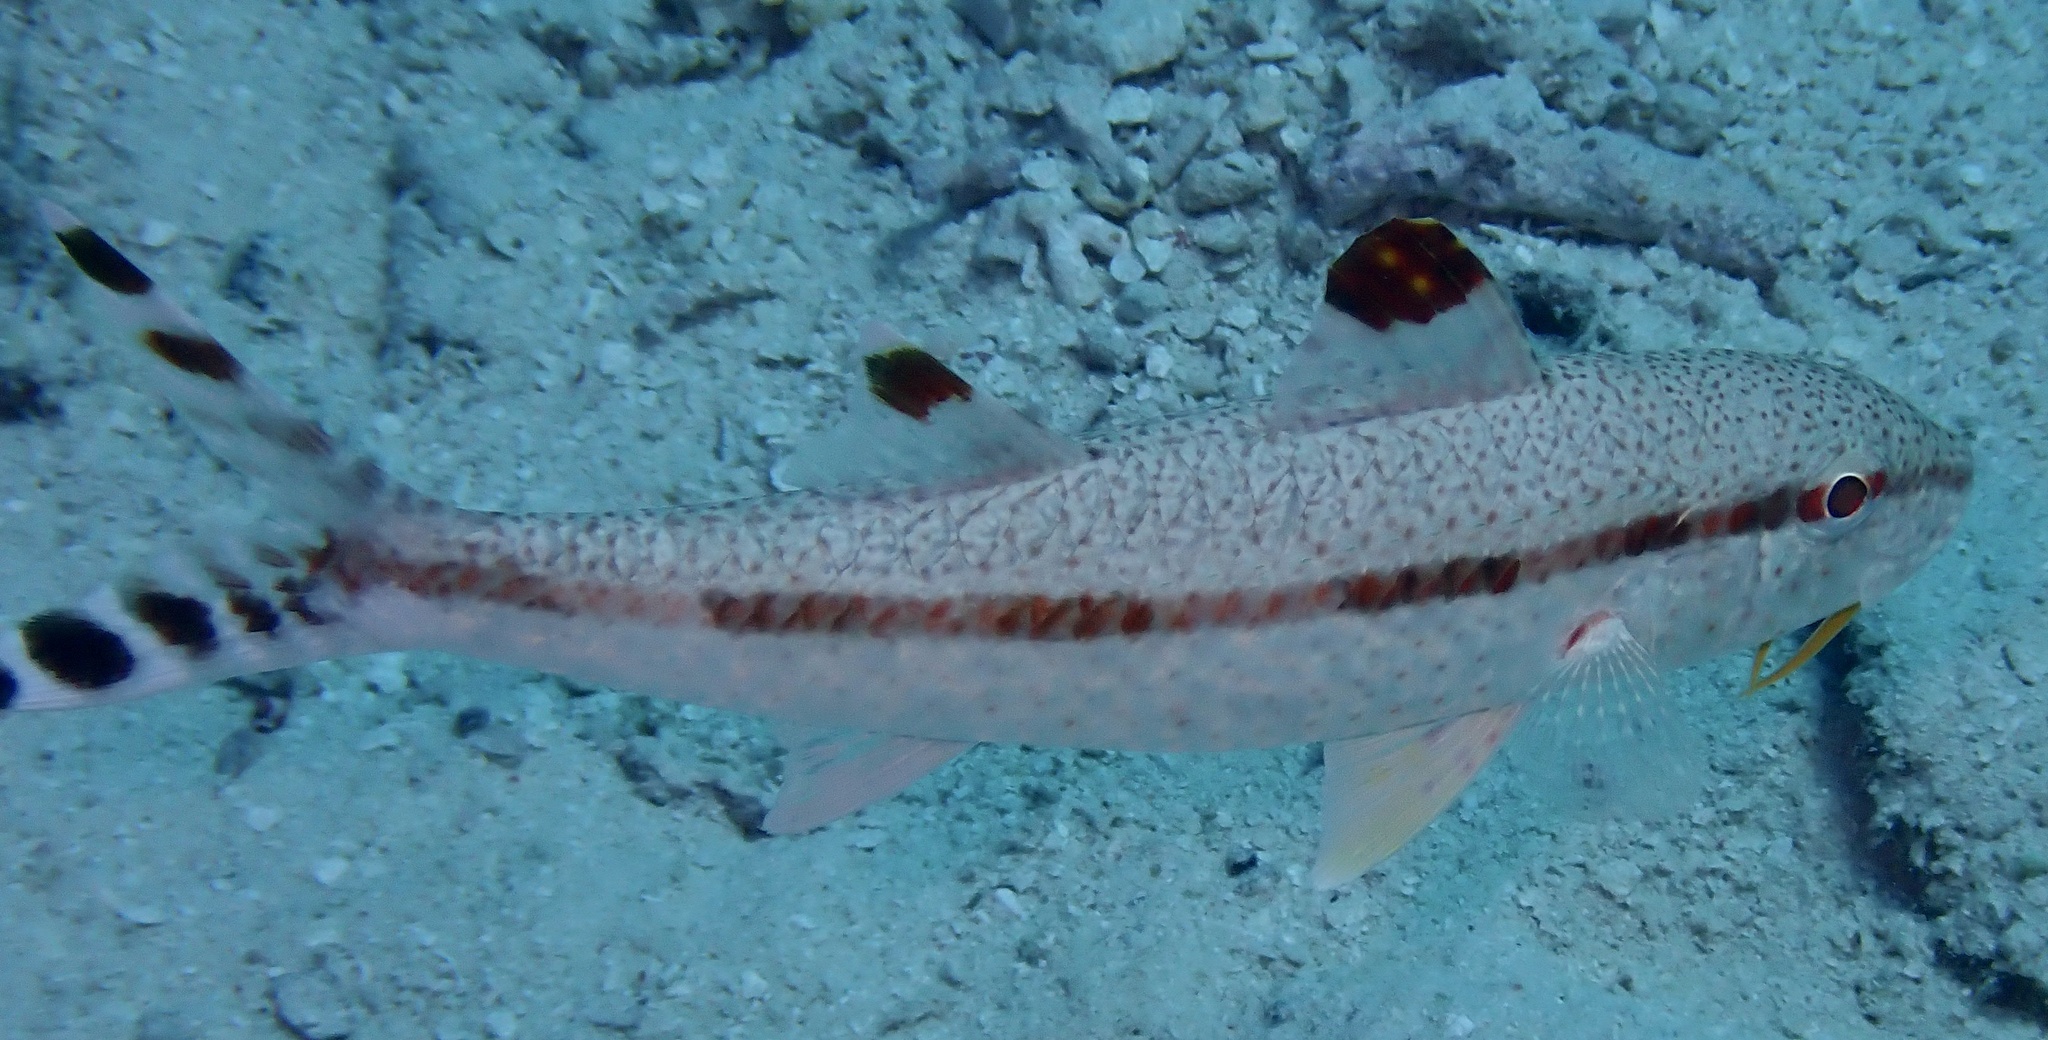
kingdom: Animalia
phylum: Chordata
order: Perciformes
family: Mullidae
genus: Upeneus
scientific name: Upeneus tragula
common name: Freckled goatfish
